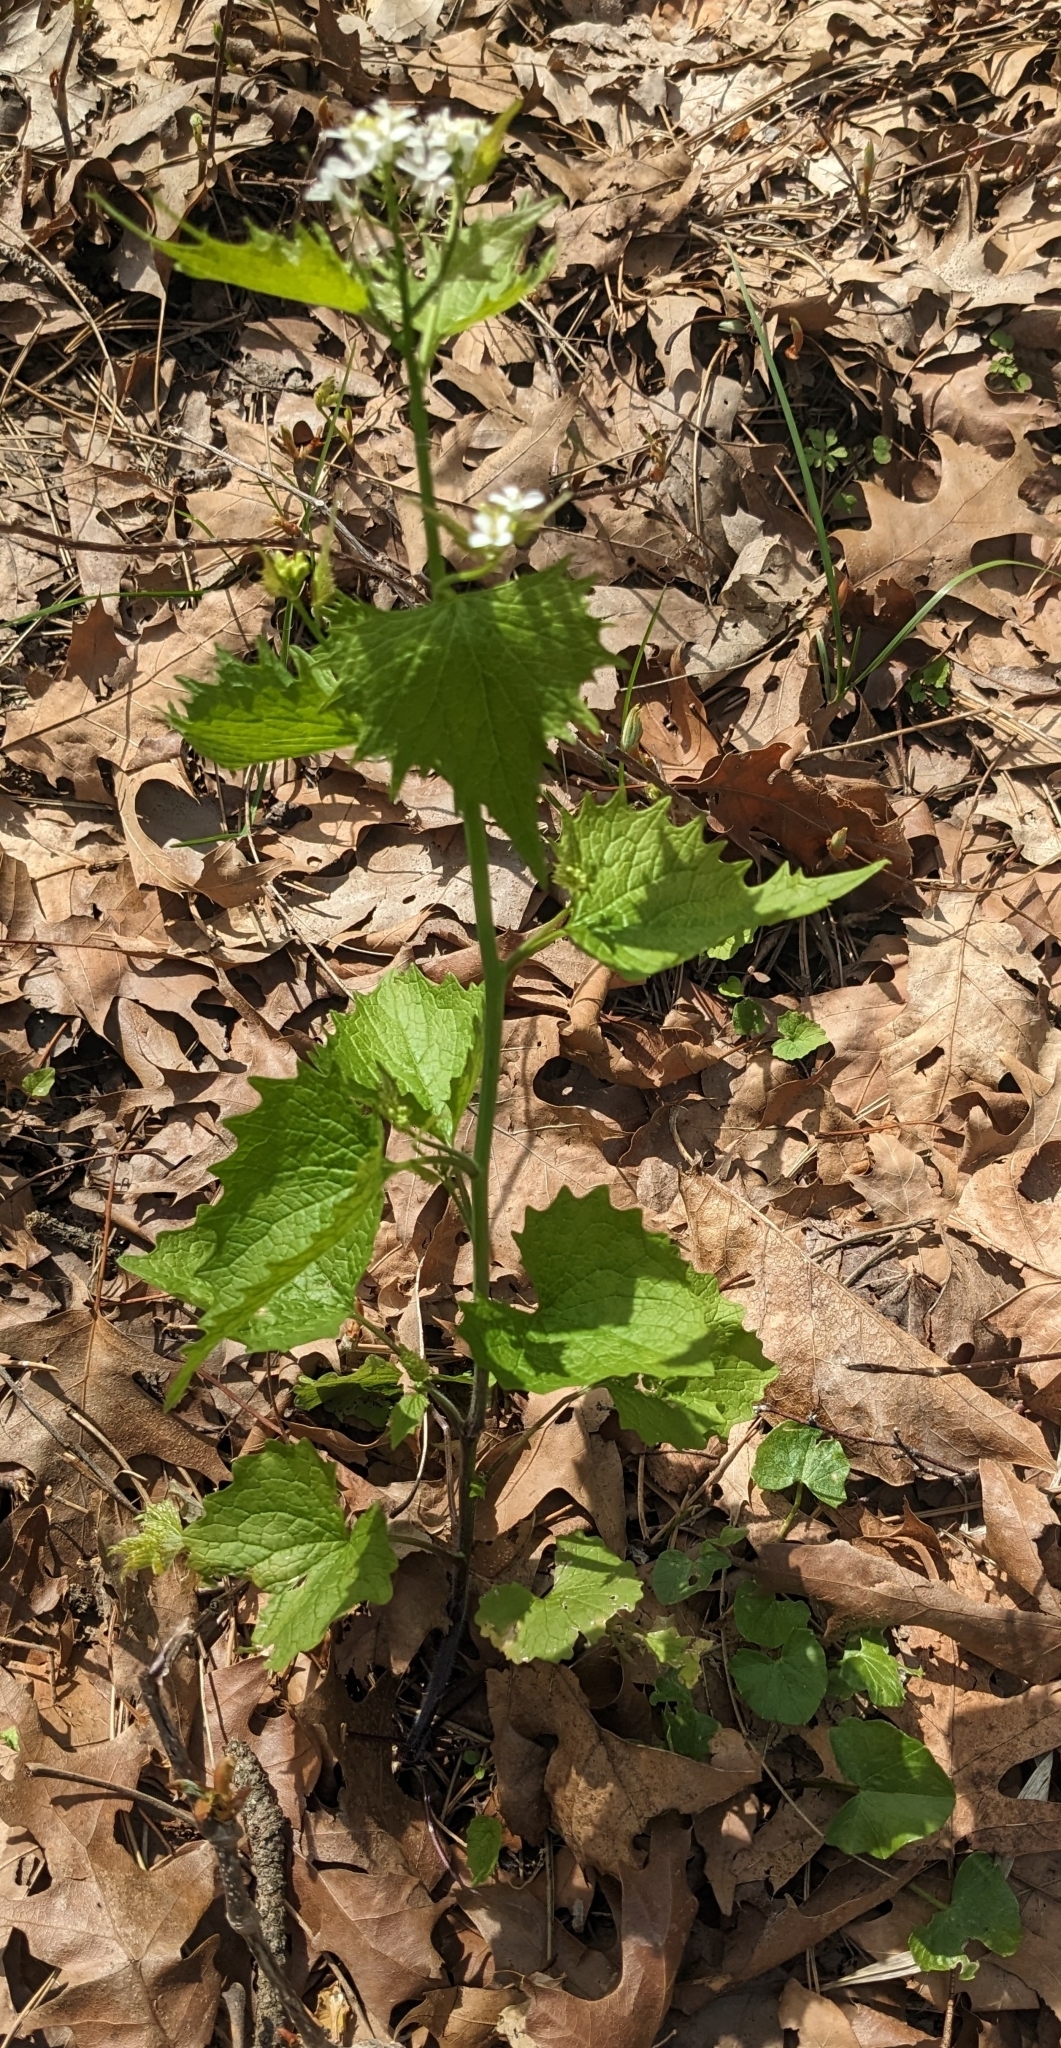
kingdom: Plantae
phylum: Tracheophyta
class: Magnoliopsida
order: Brassicales
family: Brassicaceae
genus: Alliaria
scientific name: Alliaria petiolata
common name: Garlic mustard
